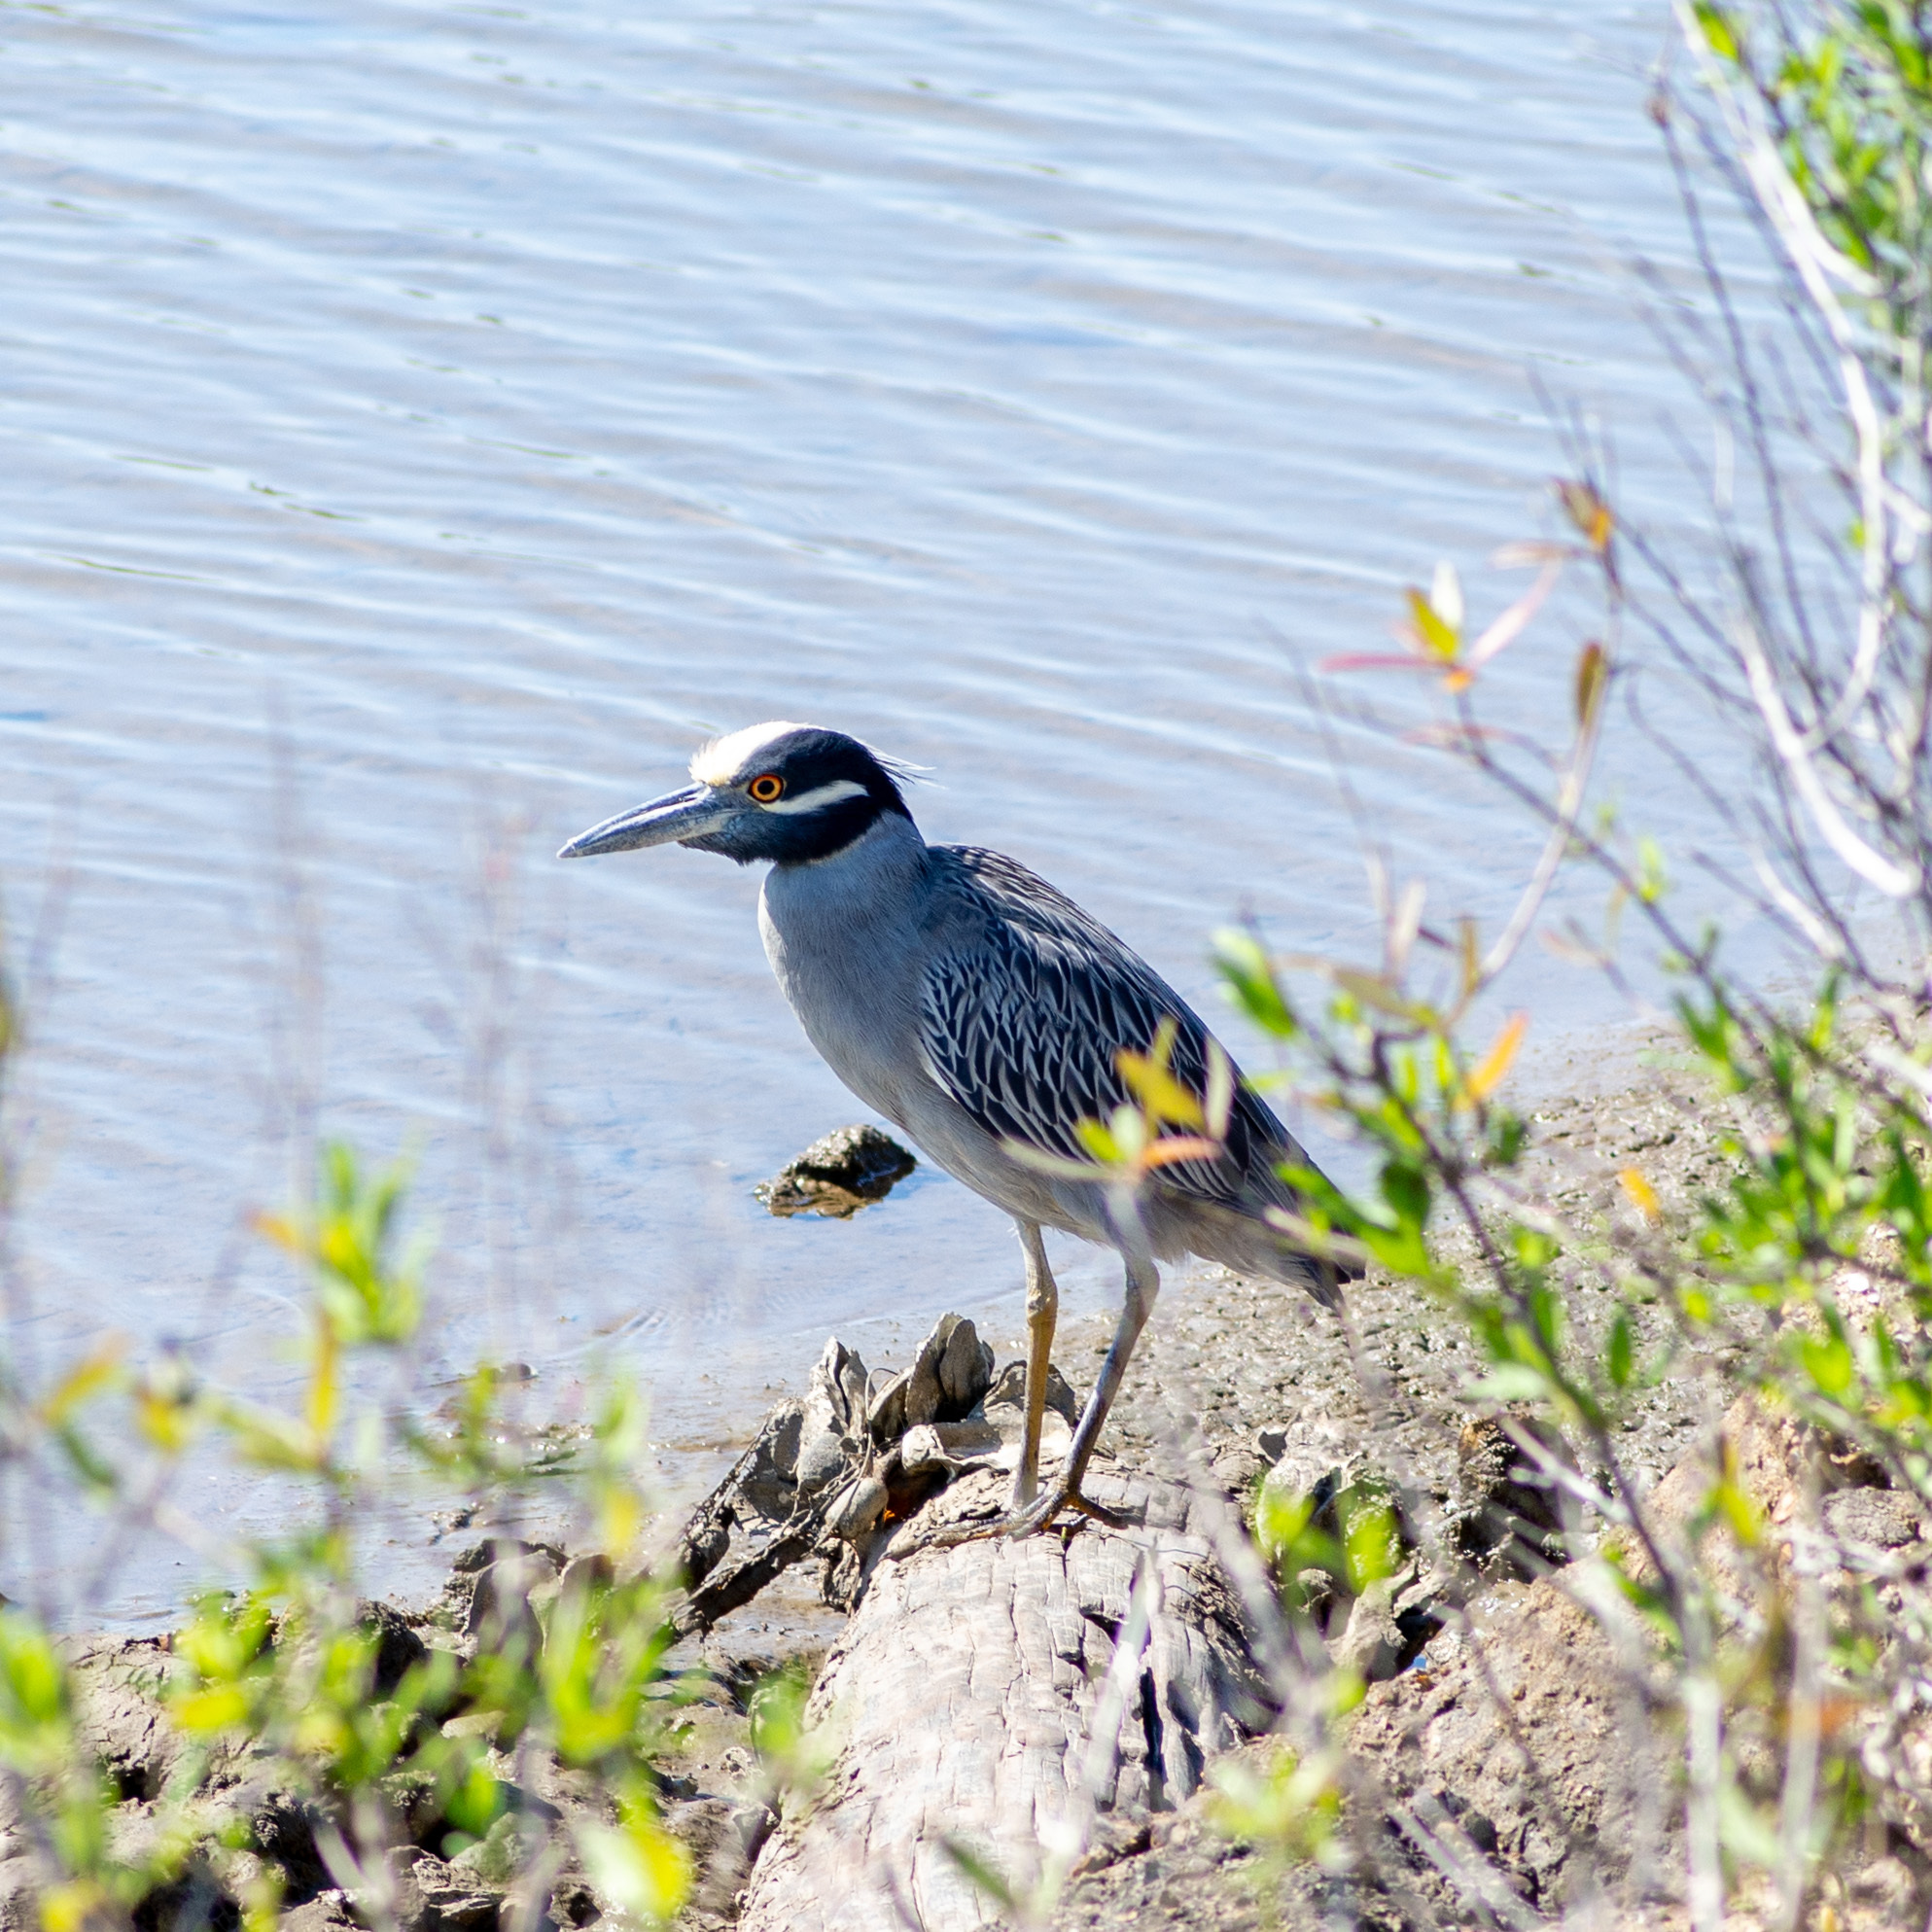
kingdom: Animalia
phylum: Chordata
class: Aves
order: Pelecaniformes
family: Ardeidae
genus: Nyctanassa
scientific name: Nyctanassa violacea
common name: Yellow-crowned night heron
